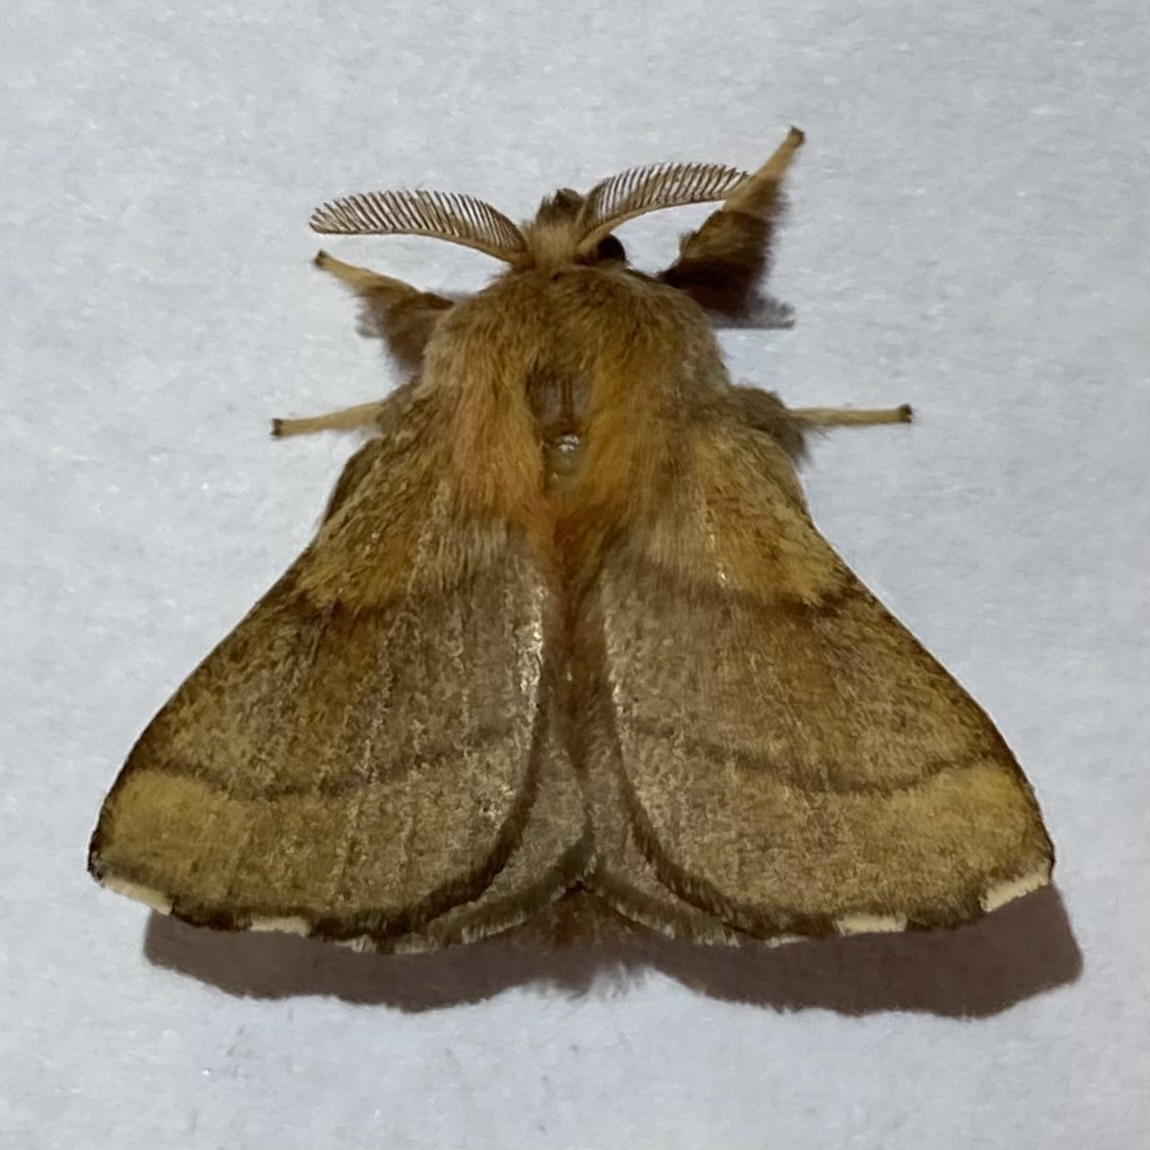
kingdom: Animalia
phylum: Arthropoda
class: Insecta
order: Lepidoptera
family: Lasiocampidae
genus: Malacosoma
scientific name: Malacosoma disstria
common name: Forest tent caterpillar
